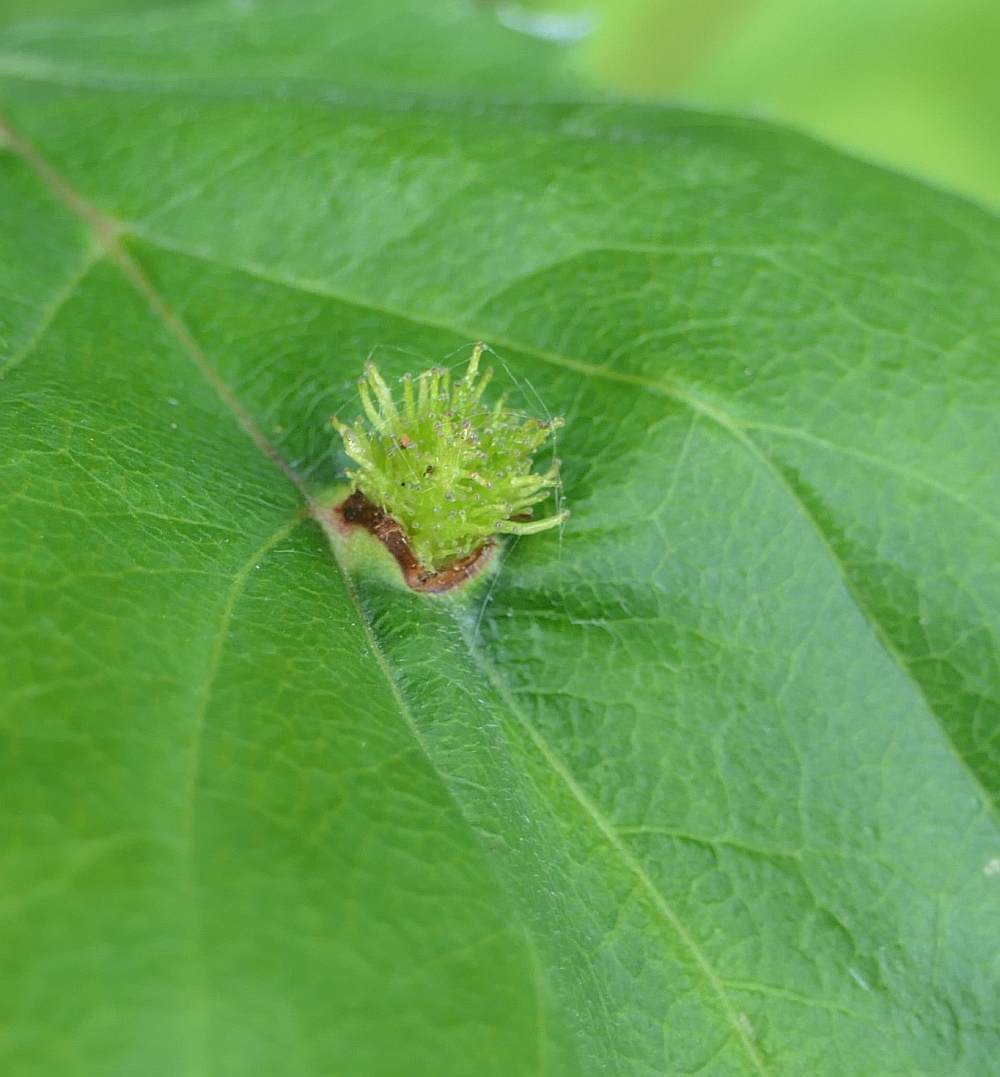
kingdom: Animalia
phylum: Arthropoda
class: Insecta
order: Diptera
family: Cecidomyiidae
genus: Blaesodiplosis
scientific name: Blaesodiplosis crataegibedeguar
